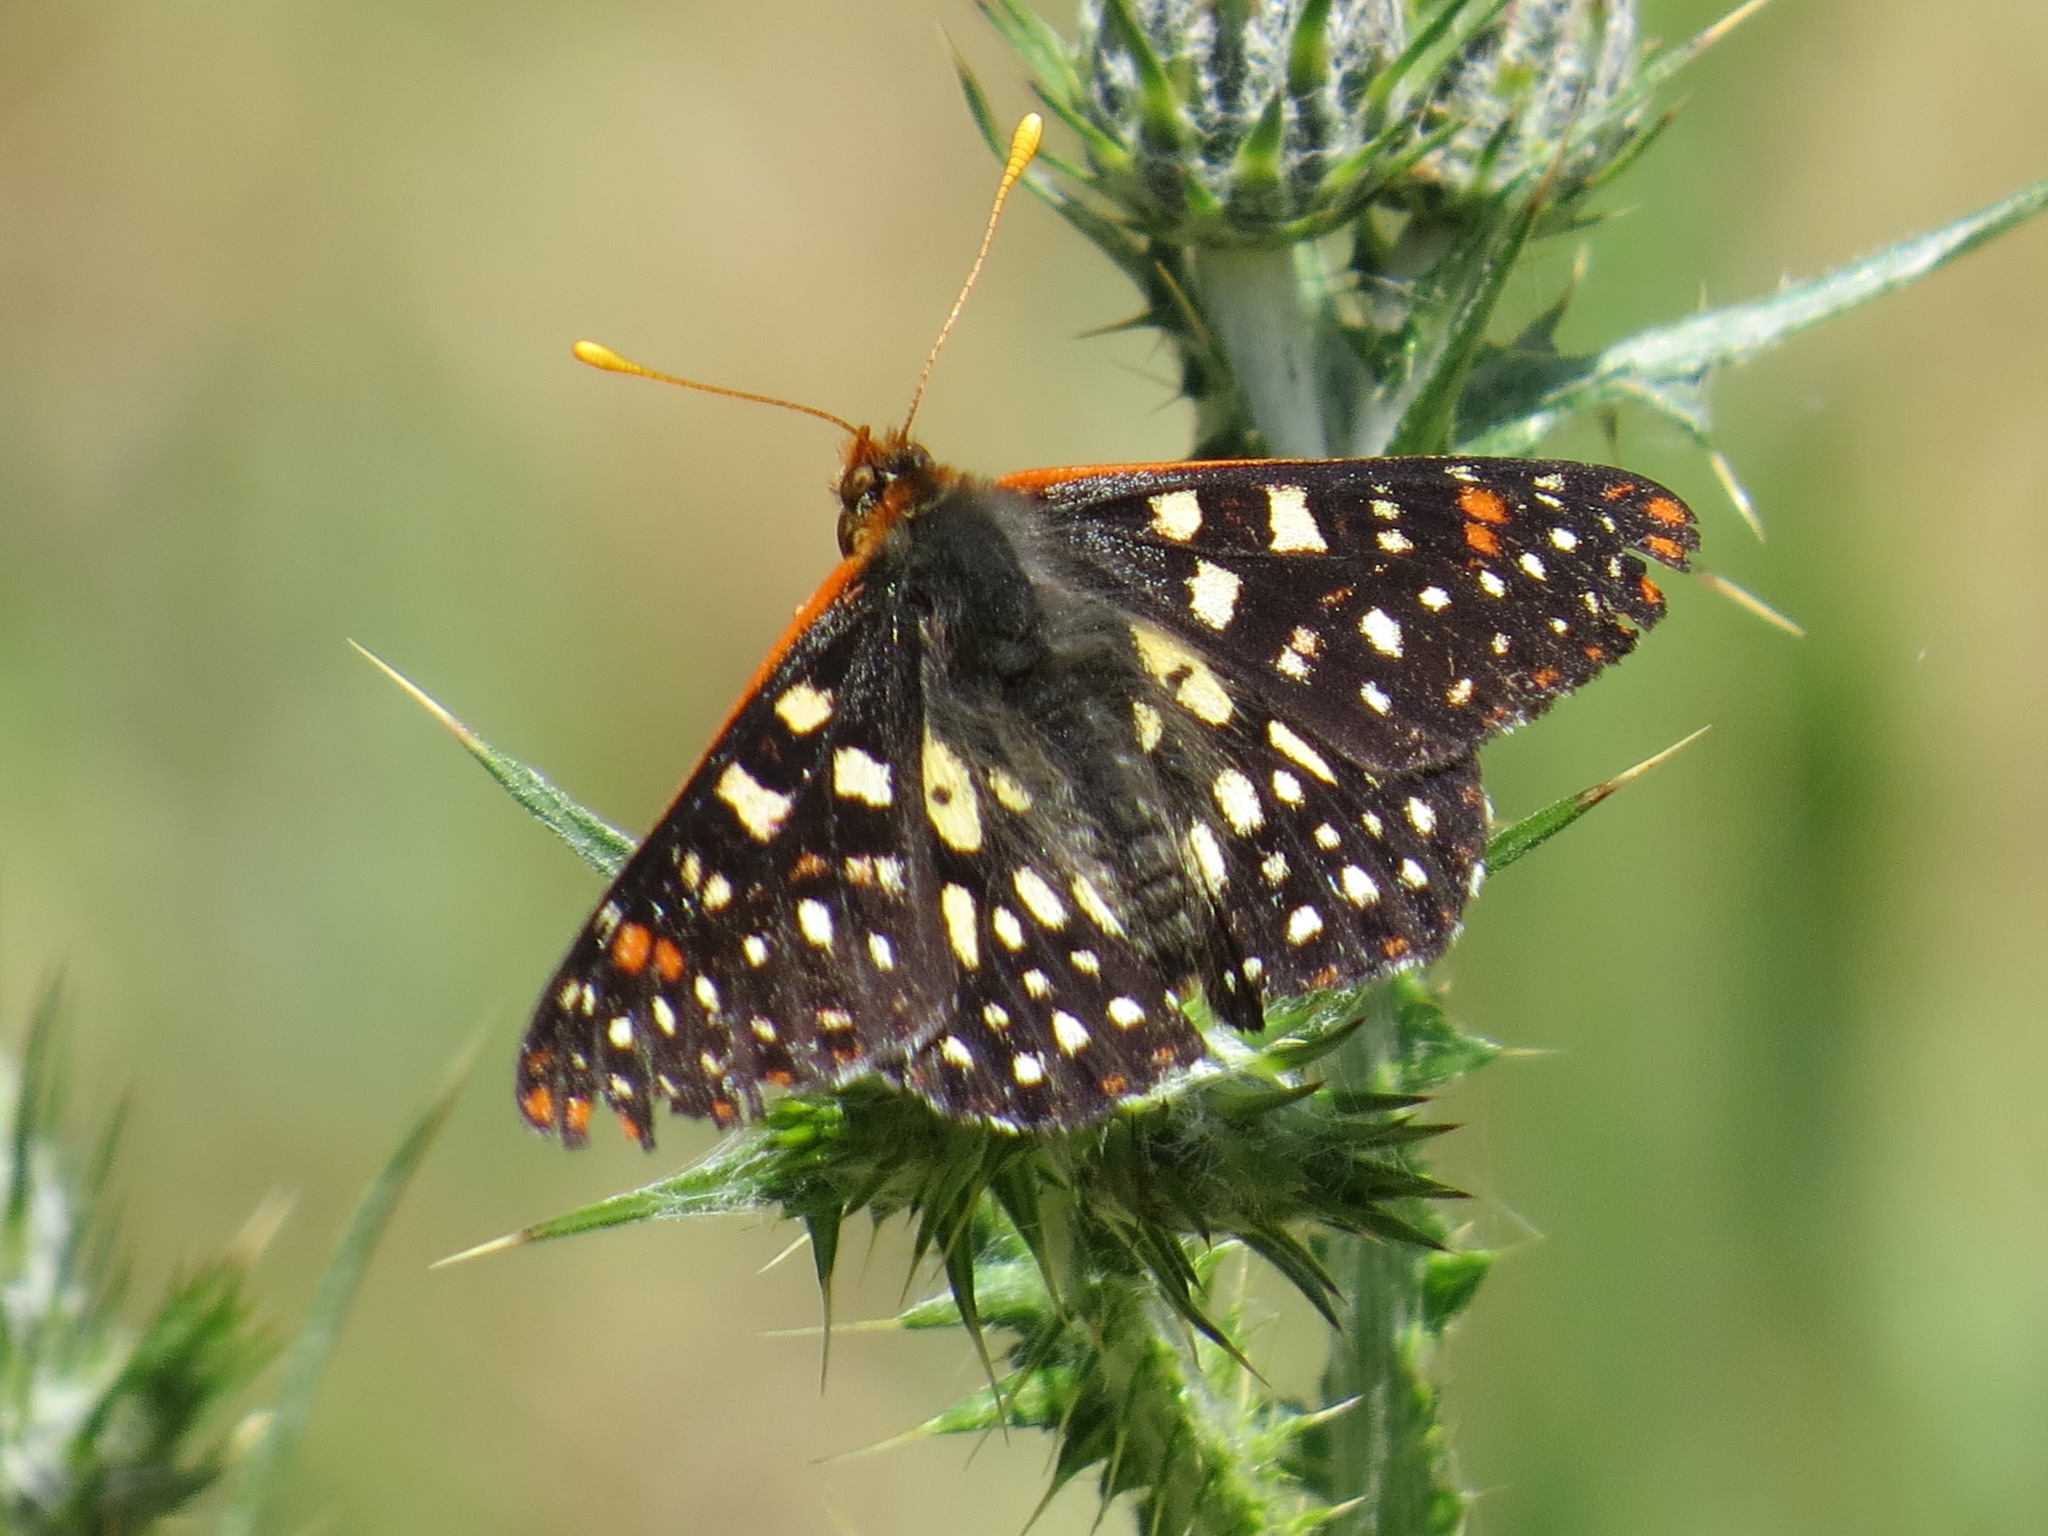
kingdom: Animalia
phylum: Arthropoda
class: Insecta
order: Lepidoptera
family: Nymphalidae
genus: Occidryas
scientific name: Occidryas chalcedona
